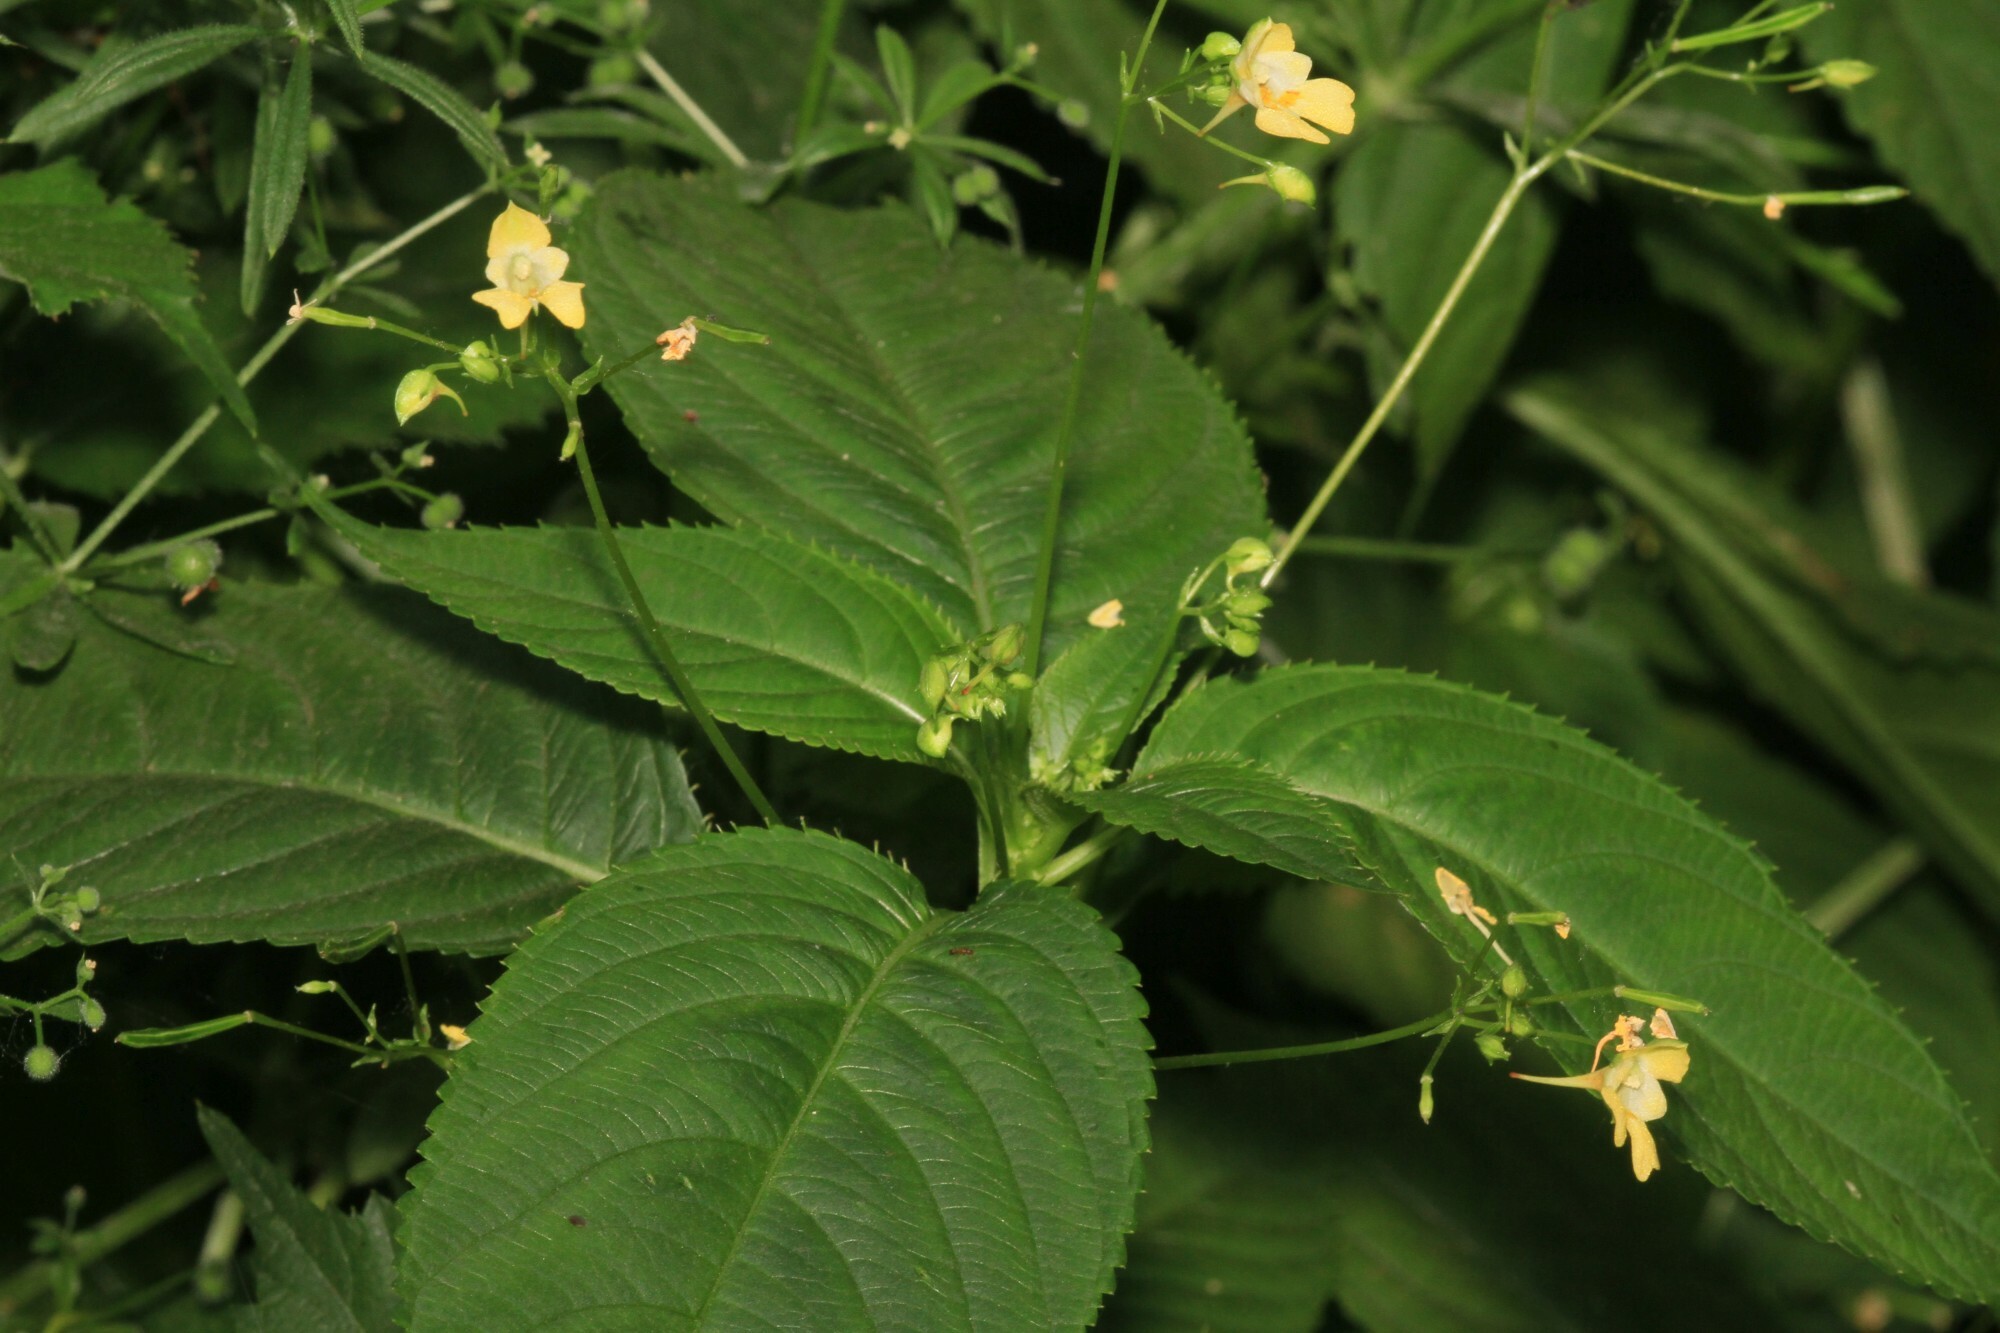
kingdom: Plantae
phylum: Tracheophyta
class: Magnoliopsida
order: Ericales
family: Balsaminaceae
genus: Impatiens
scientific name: Impatiens parviflora
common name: Small balsam
